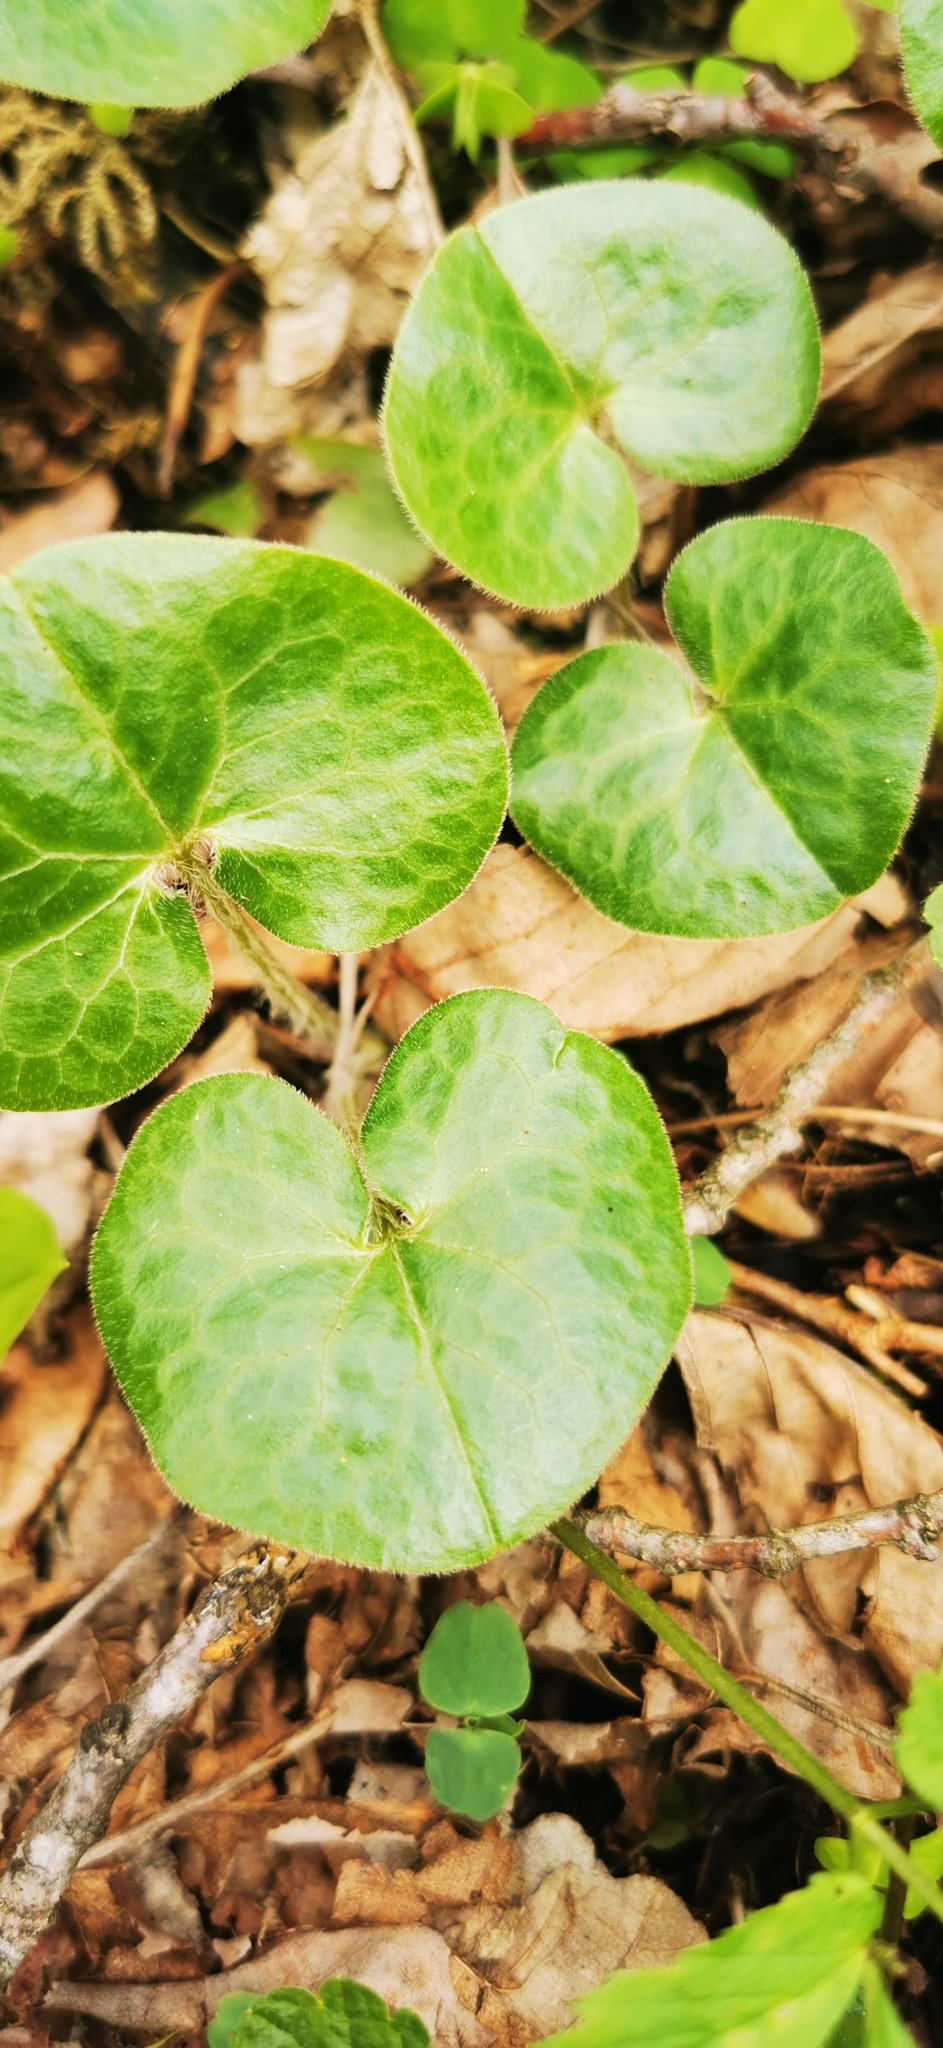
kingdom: Plantae
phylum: Tracheophyta
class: Magnoliopsida
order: Piperales
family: Aristolochiaceae
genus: Asarum
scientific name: Asarum europaeum
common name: Asarabacca
